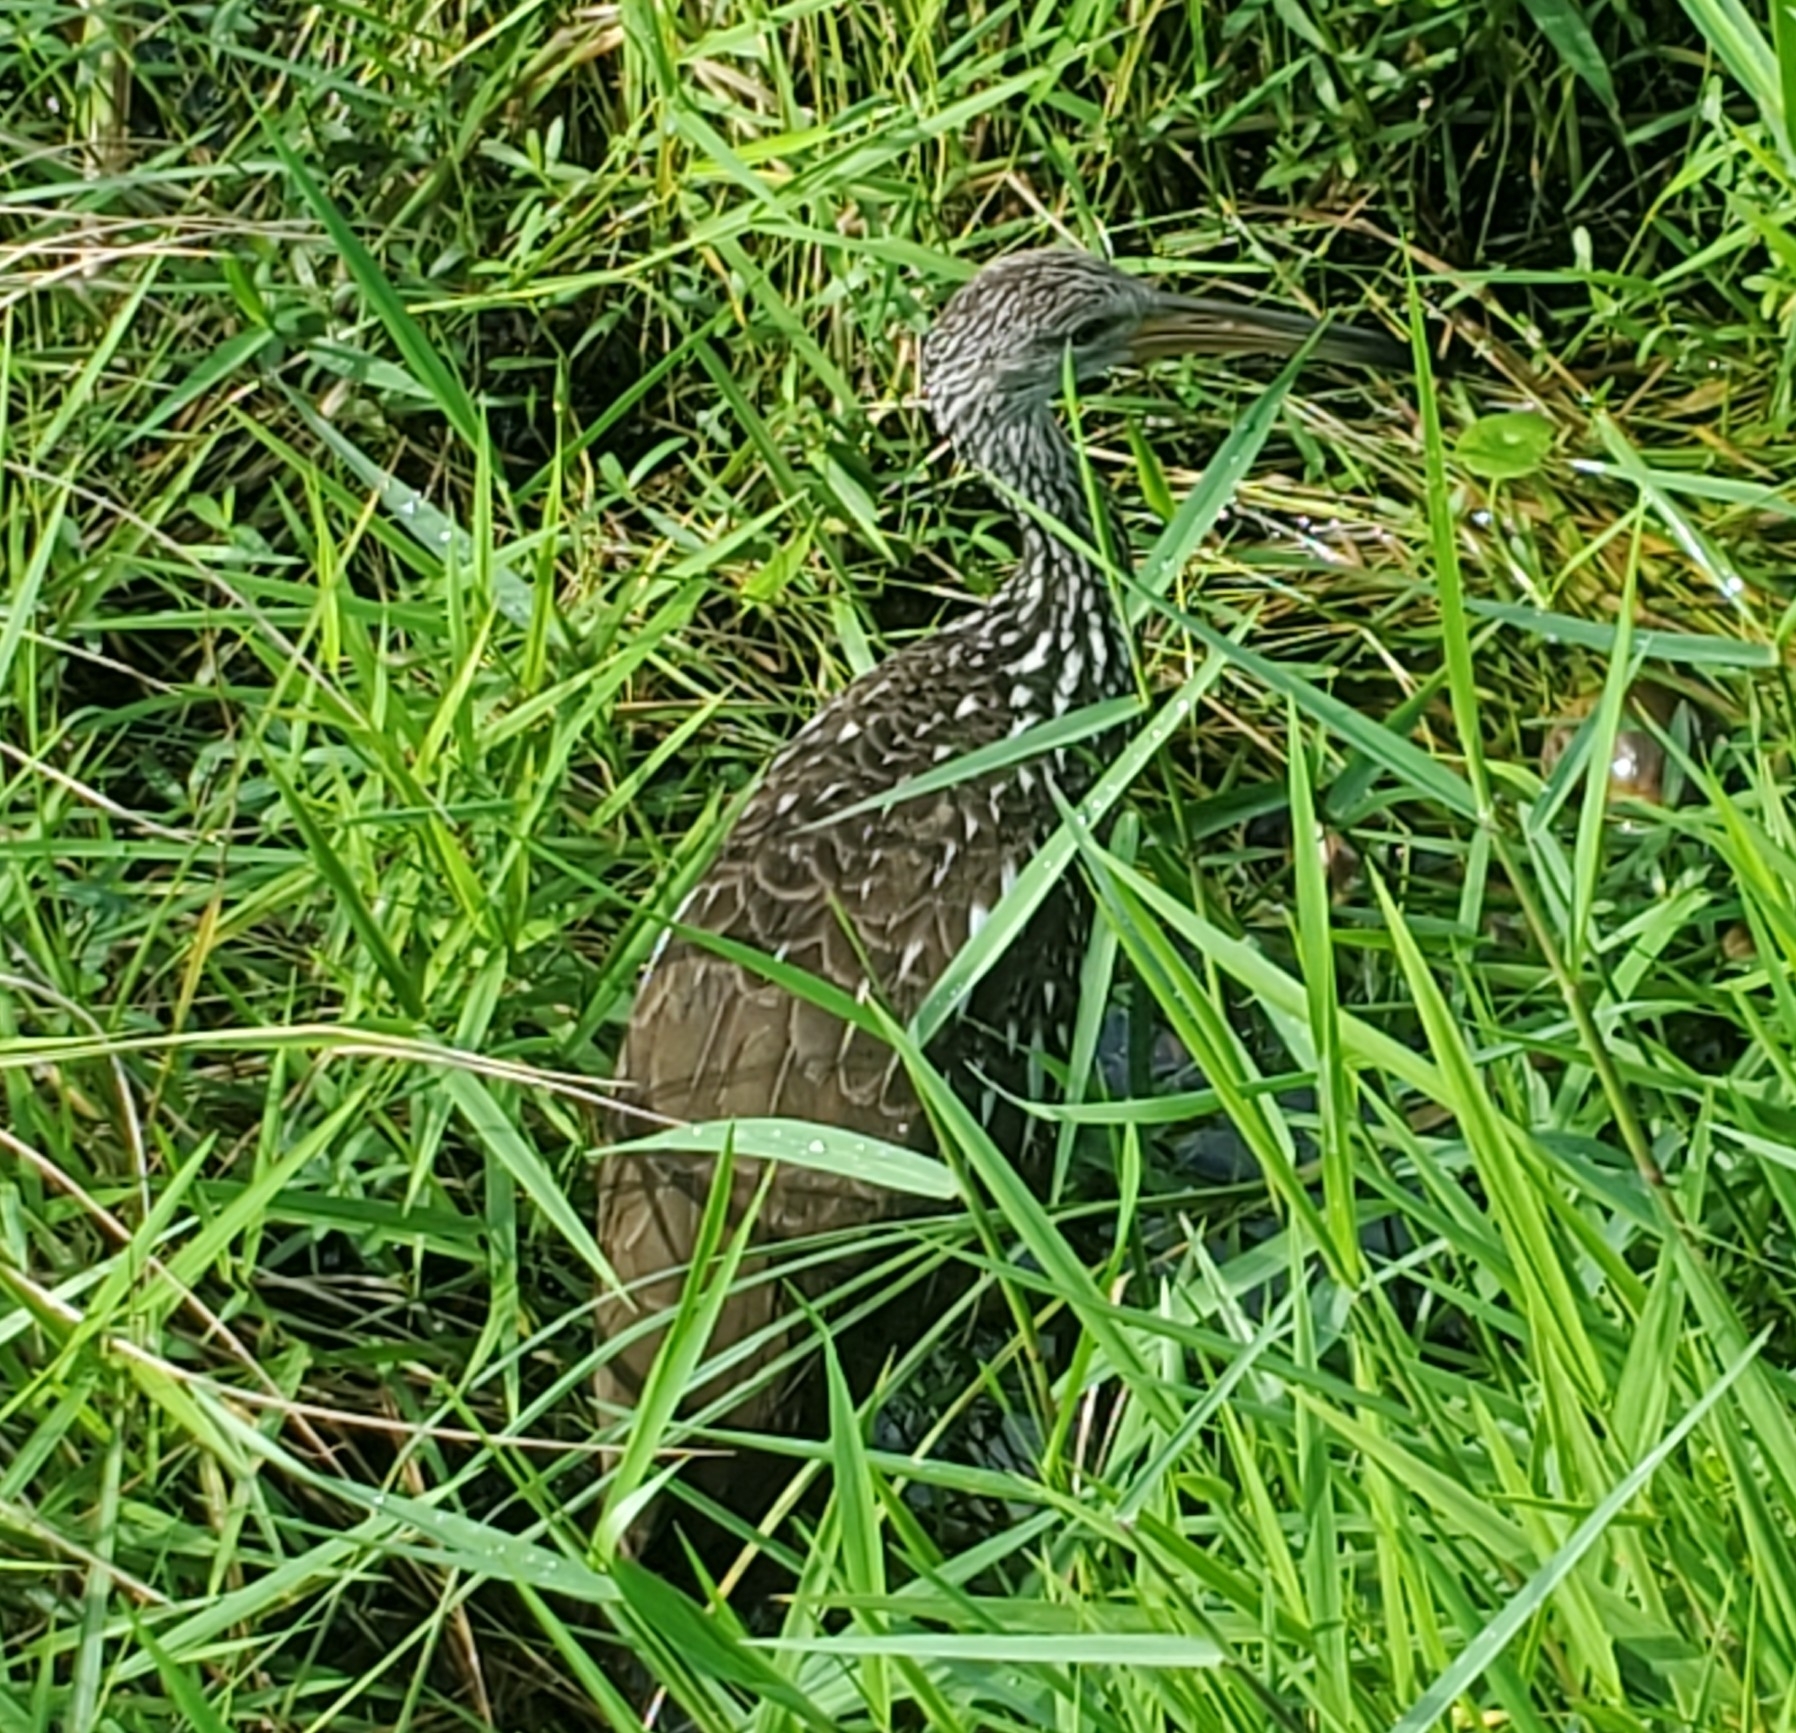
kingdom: Animalia
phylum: Chordata
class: Aves
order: Gruiformes
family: Aramidae
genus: Aramus
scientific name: Aramus guarauna
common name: Limpkin
